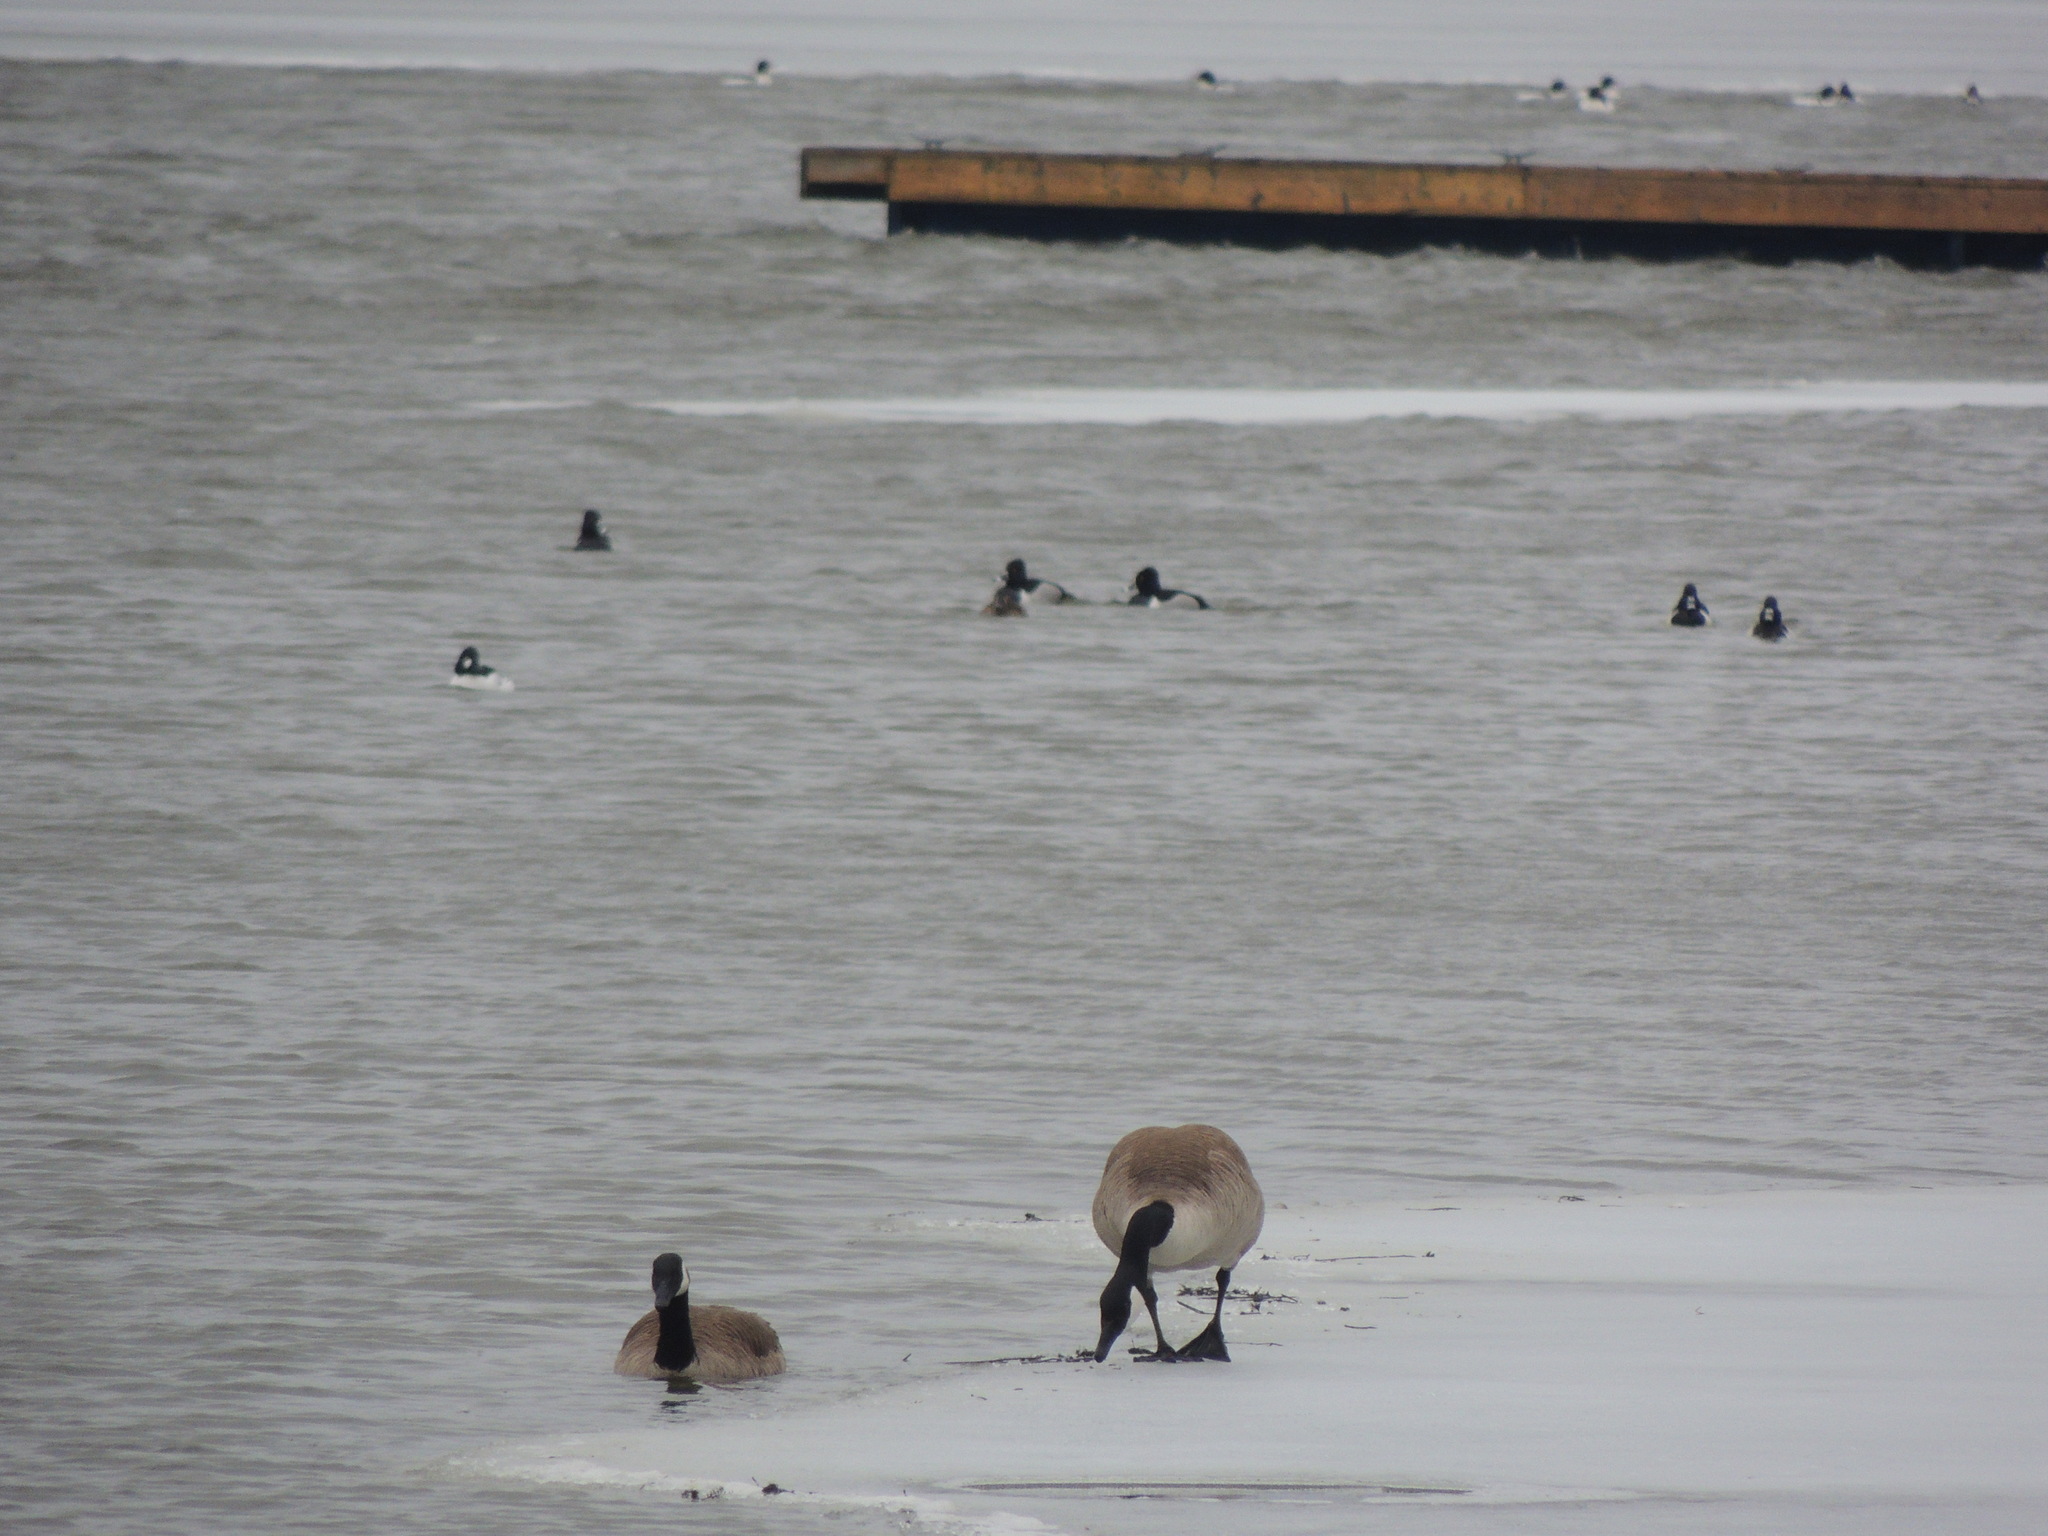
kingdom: Animalia
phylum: Chordata
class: Aves
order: Anseriformes
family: Anatidae
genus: Branta
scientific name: Branta canadensis
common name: Canada goose
